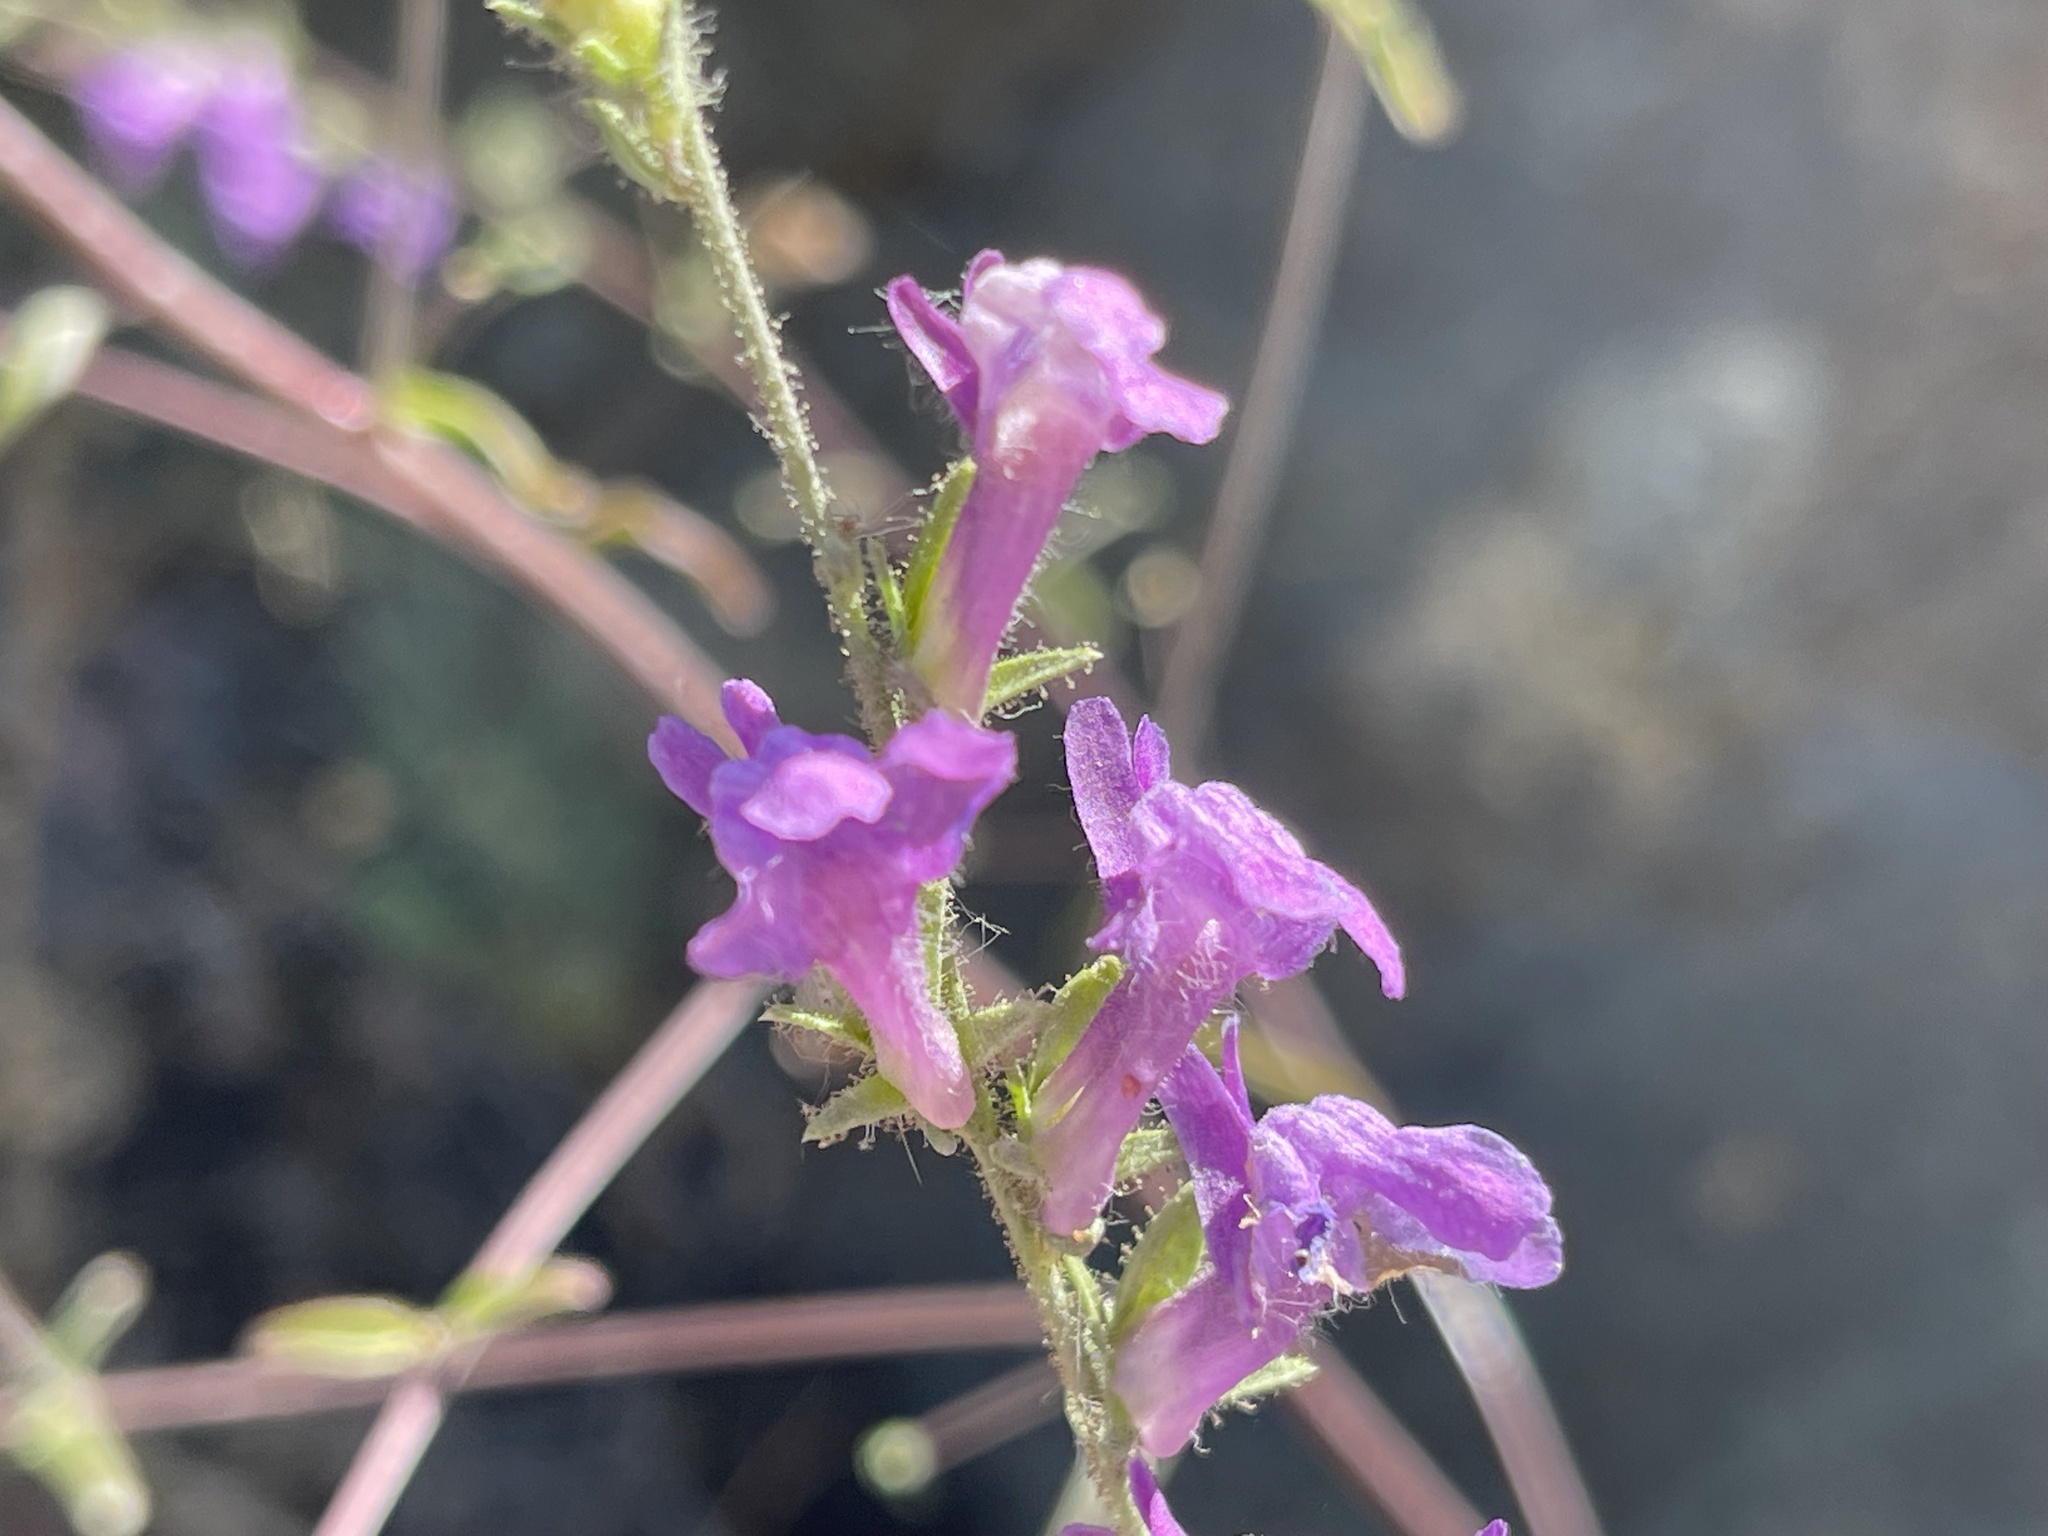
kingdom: Plantae
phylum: Tracheophyta
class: Magnoliopsida
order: Lamiales
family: Plantaginaceae
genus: Sairocarpus
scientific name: Sairocarpus vexillocalyculatus
